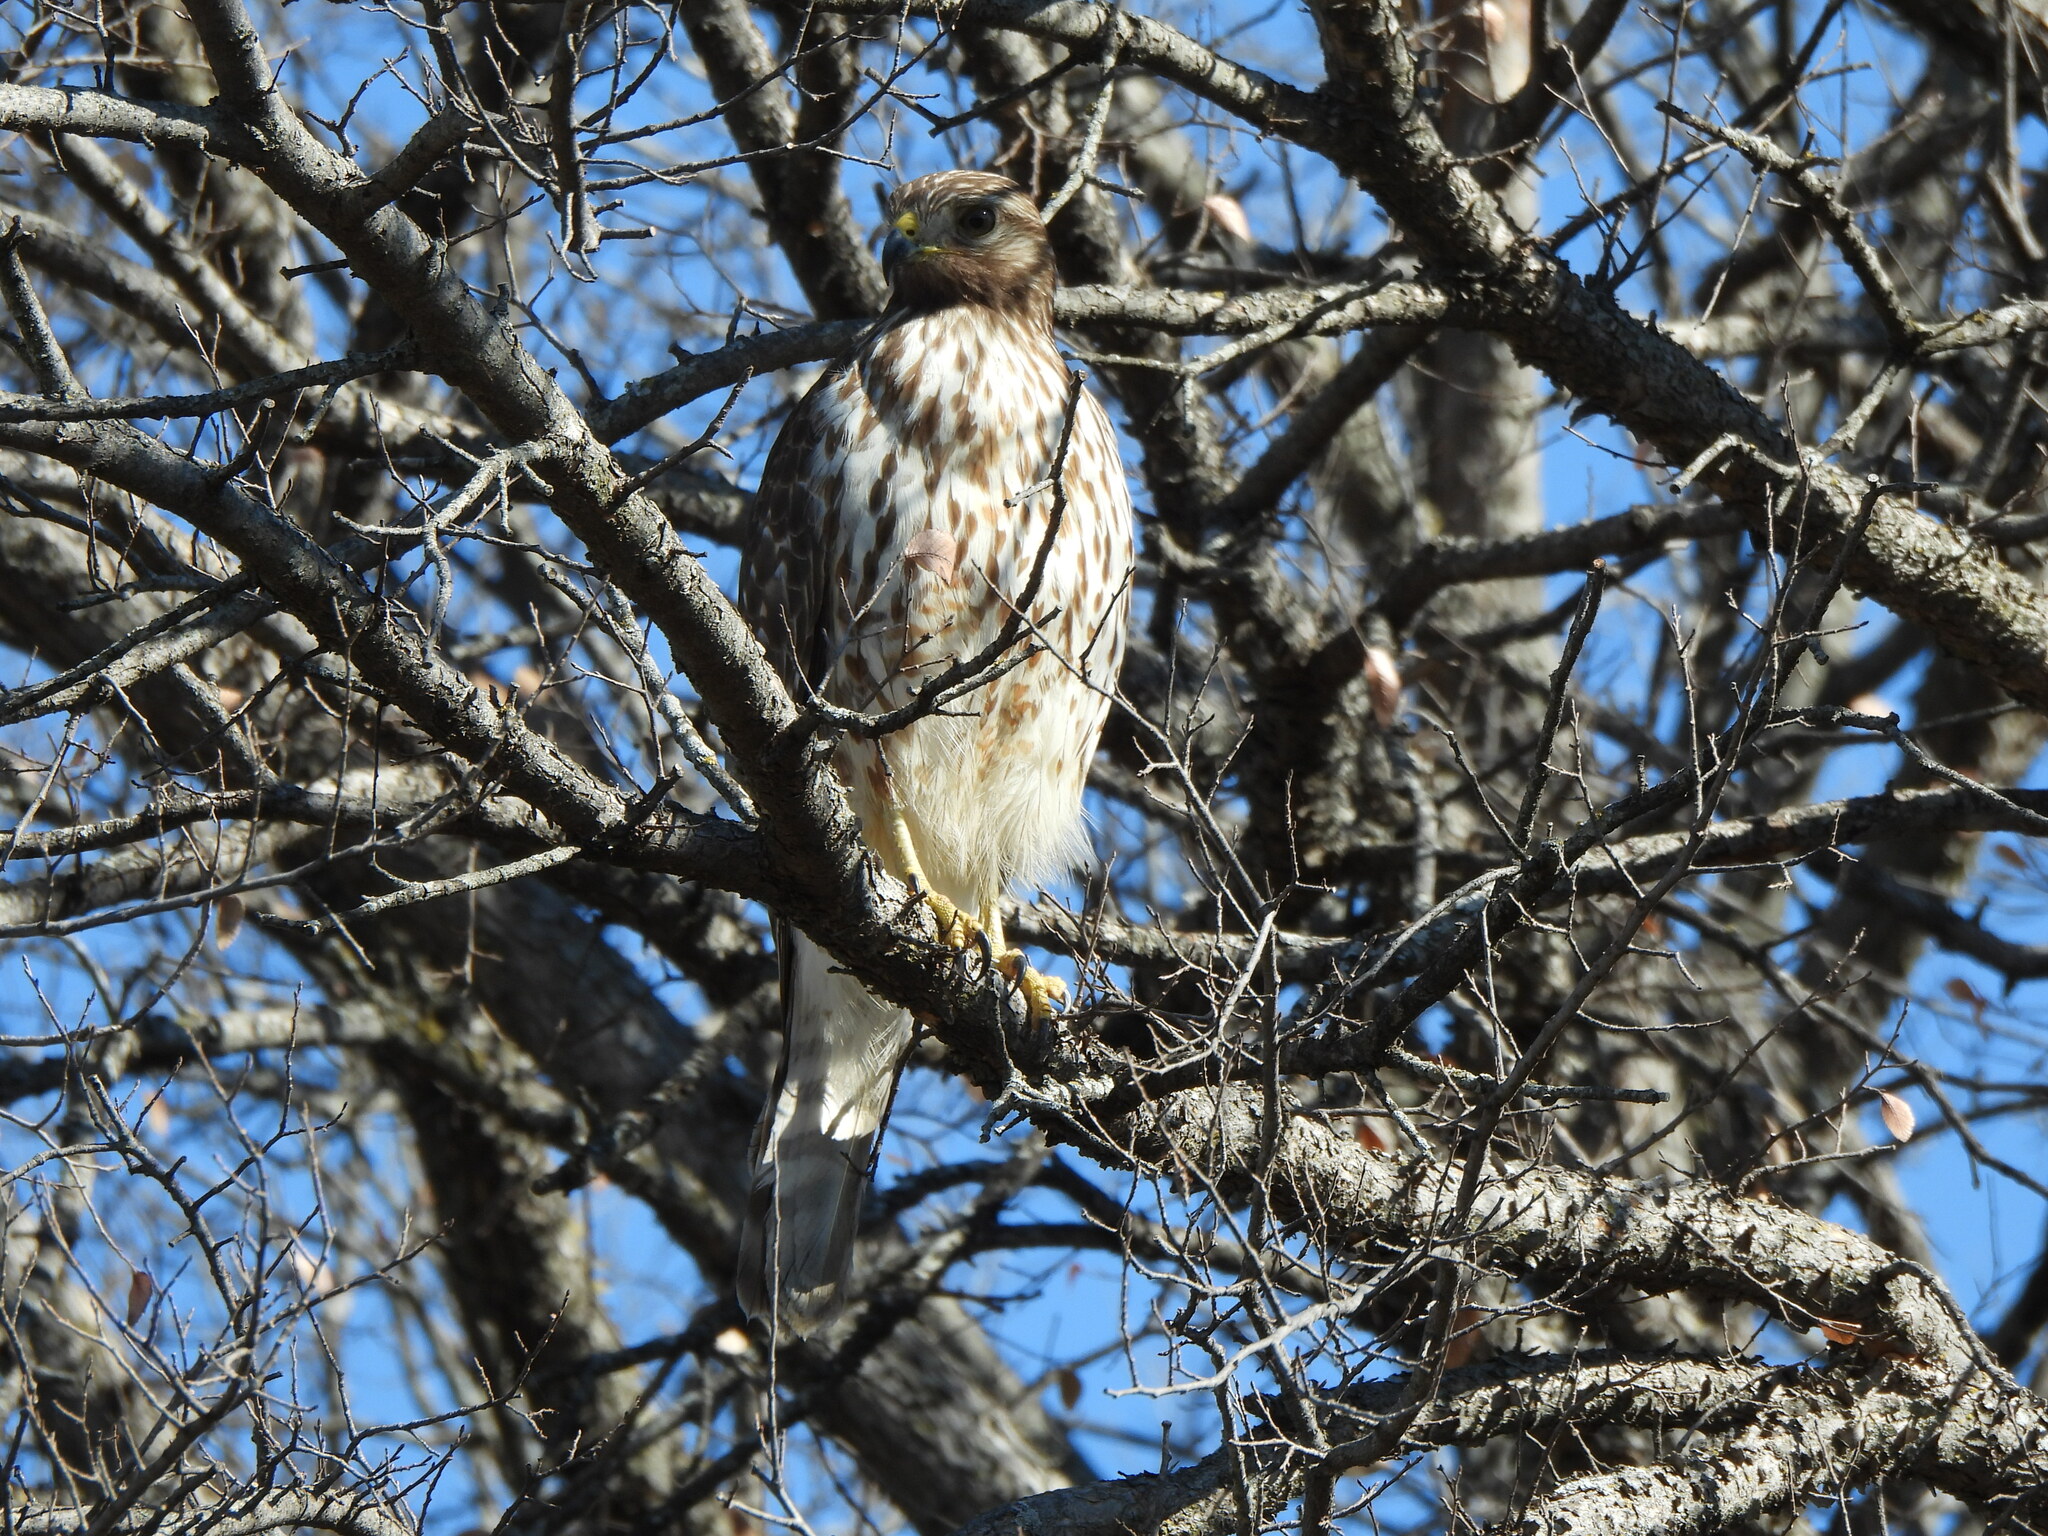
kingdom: Animalia
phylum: Chordata
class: Aves
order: Accipitriformes
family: Accipitridae
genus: Buteo
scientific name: Buteo lineatus
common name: Red-shouldered hawk
